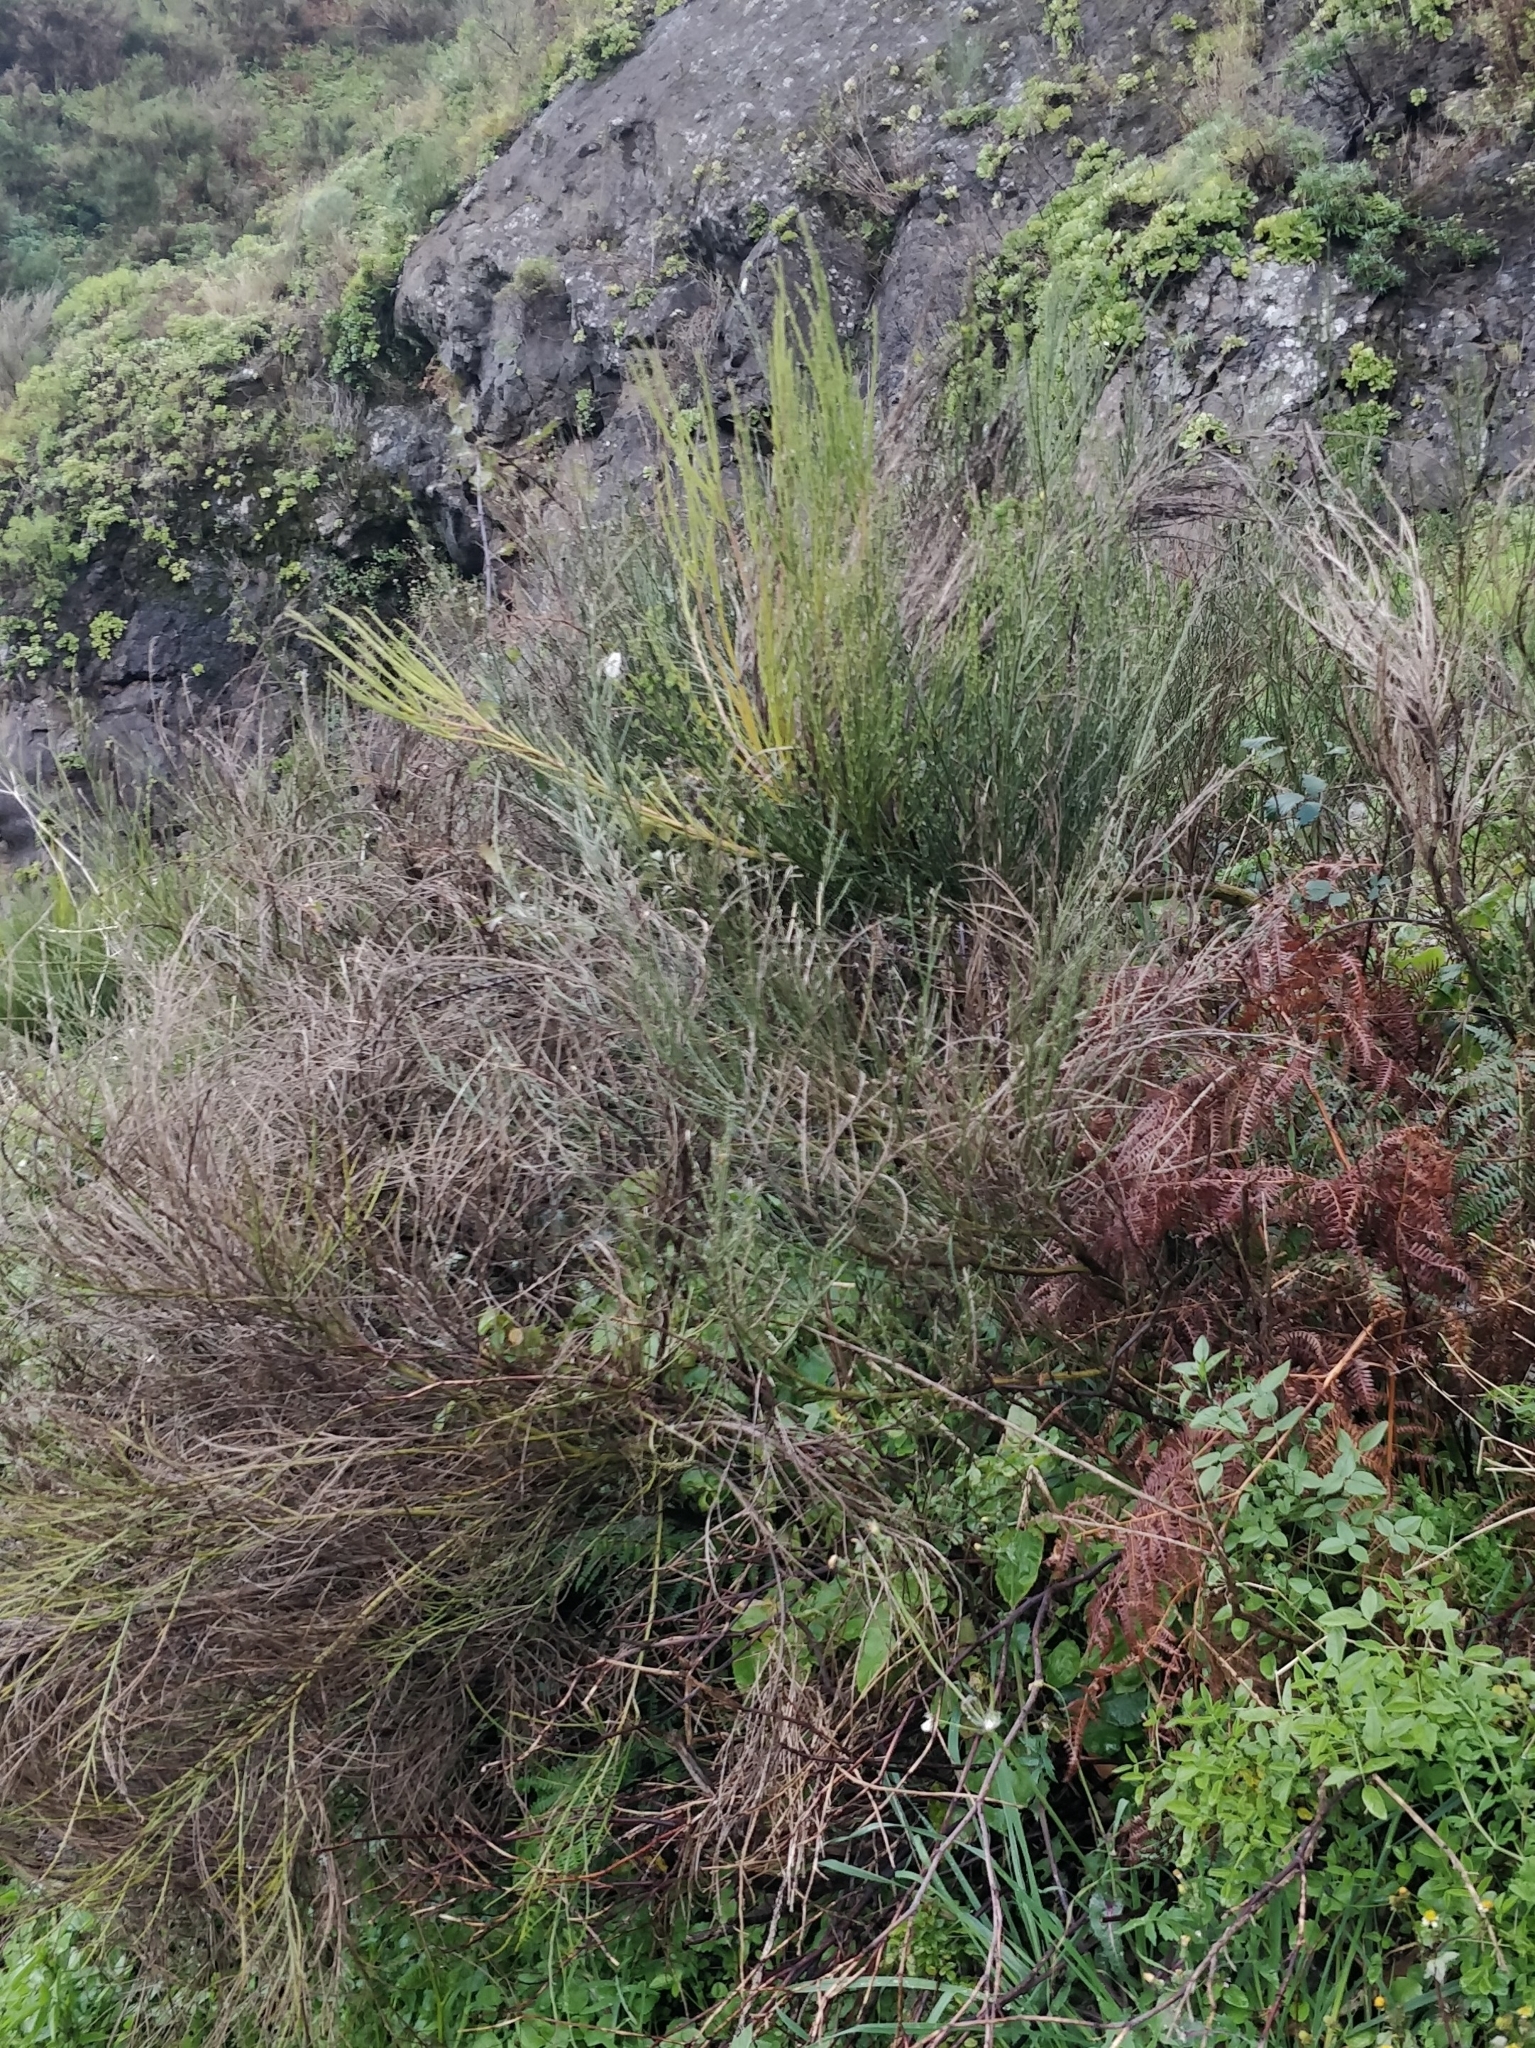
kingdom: Plantae
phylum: Tracheophyta
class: Magnoliopsida
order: Fabales
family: Fabaceae
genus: Cytisus
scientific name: Cytisus scoparius
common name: Scotch broom
